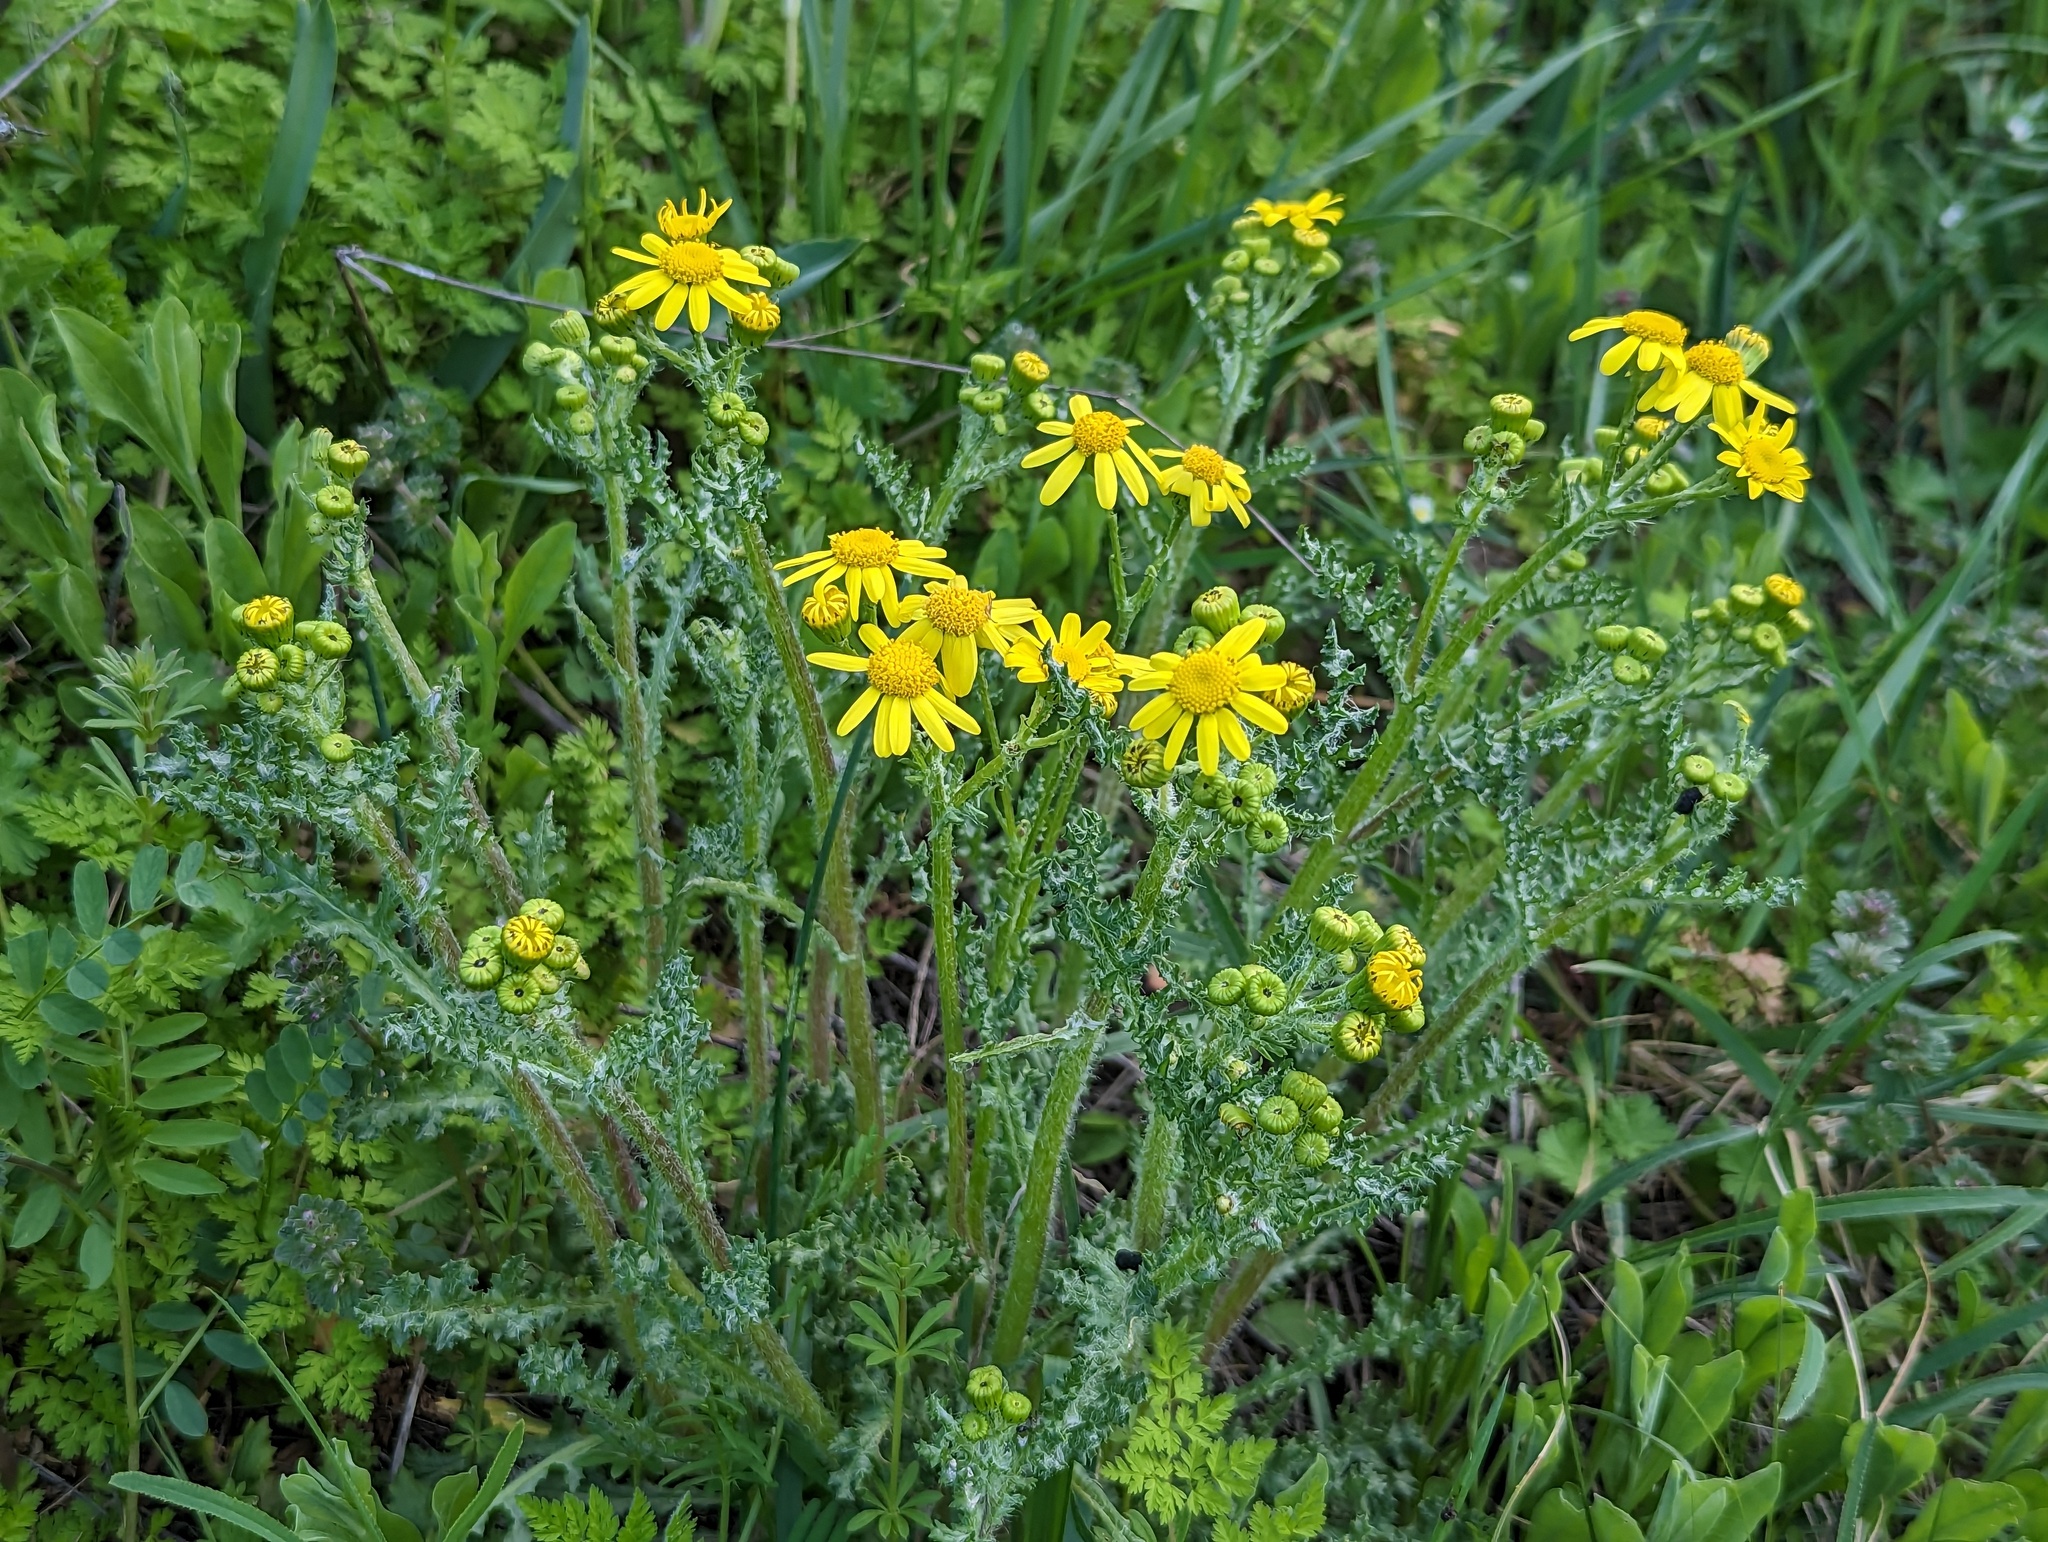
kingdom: Plantae
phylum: Tracheophyta
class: Magnoliopsida
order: Asterales
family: Asteraceae
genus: Senecio
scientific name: Senecio vernalis
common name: Eastern groundsel
